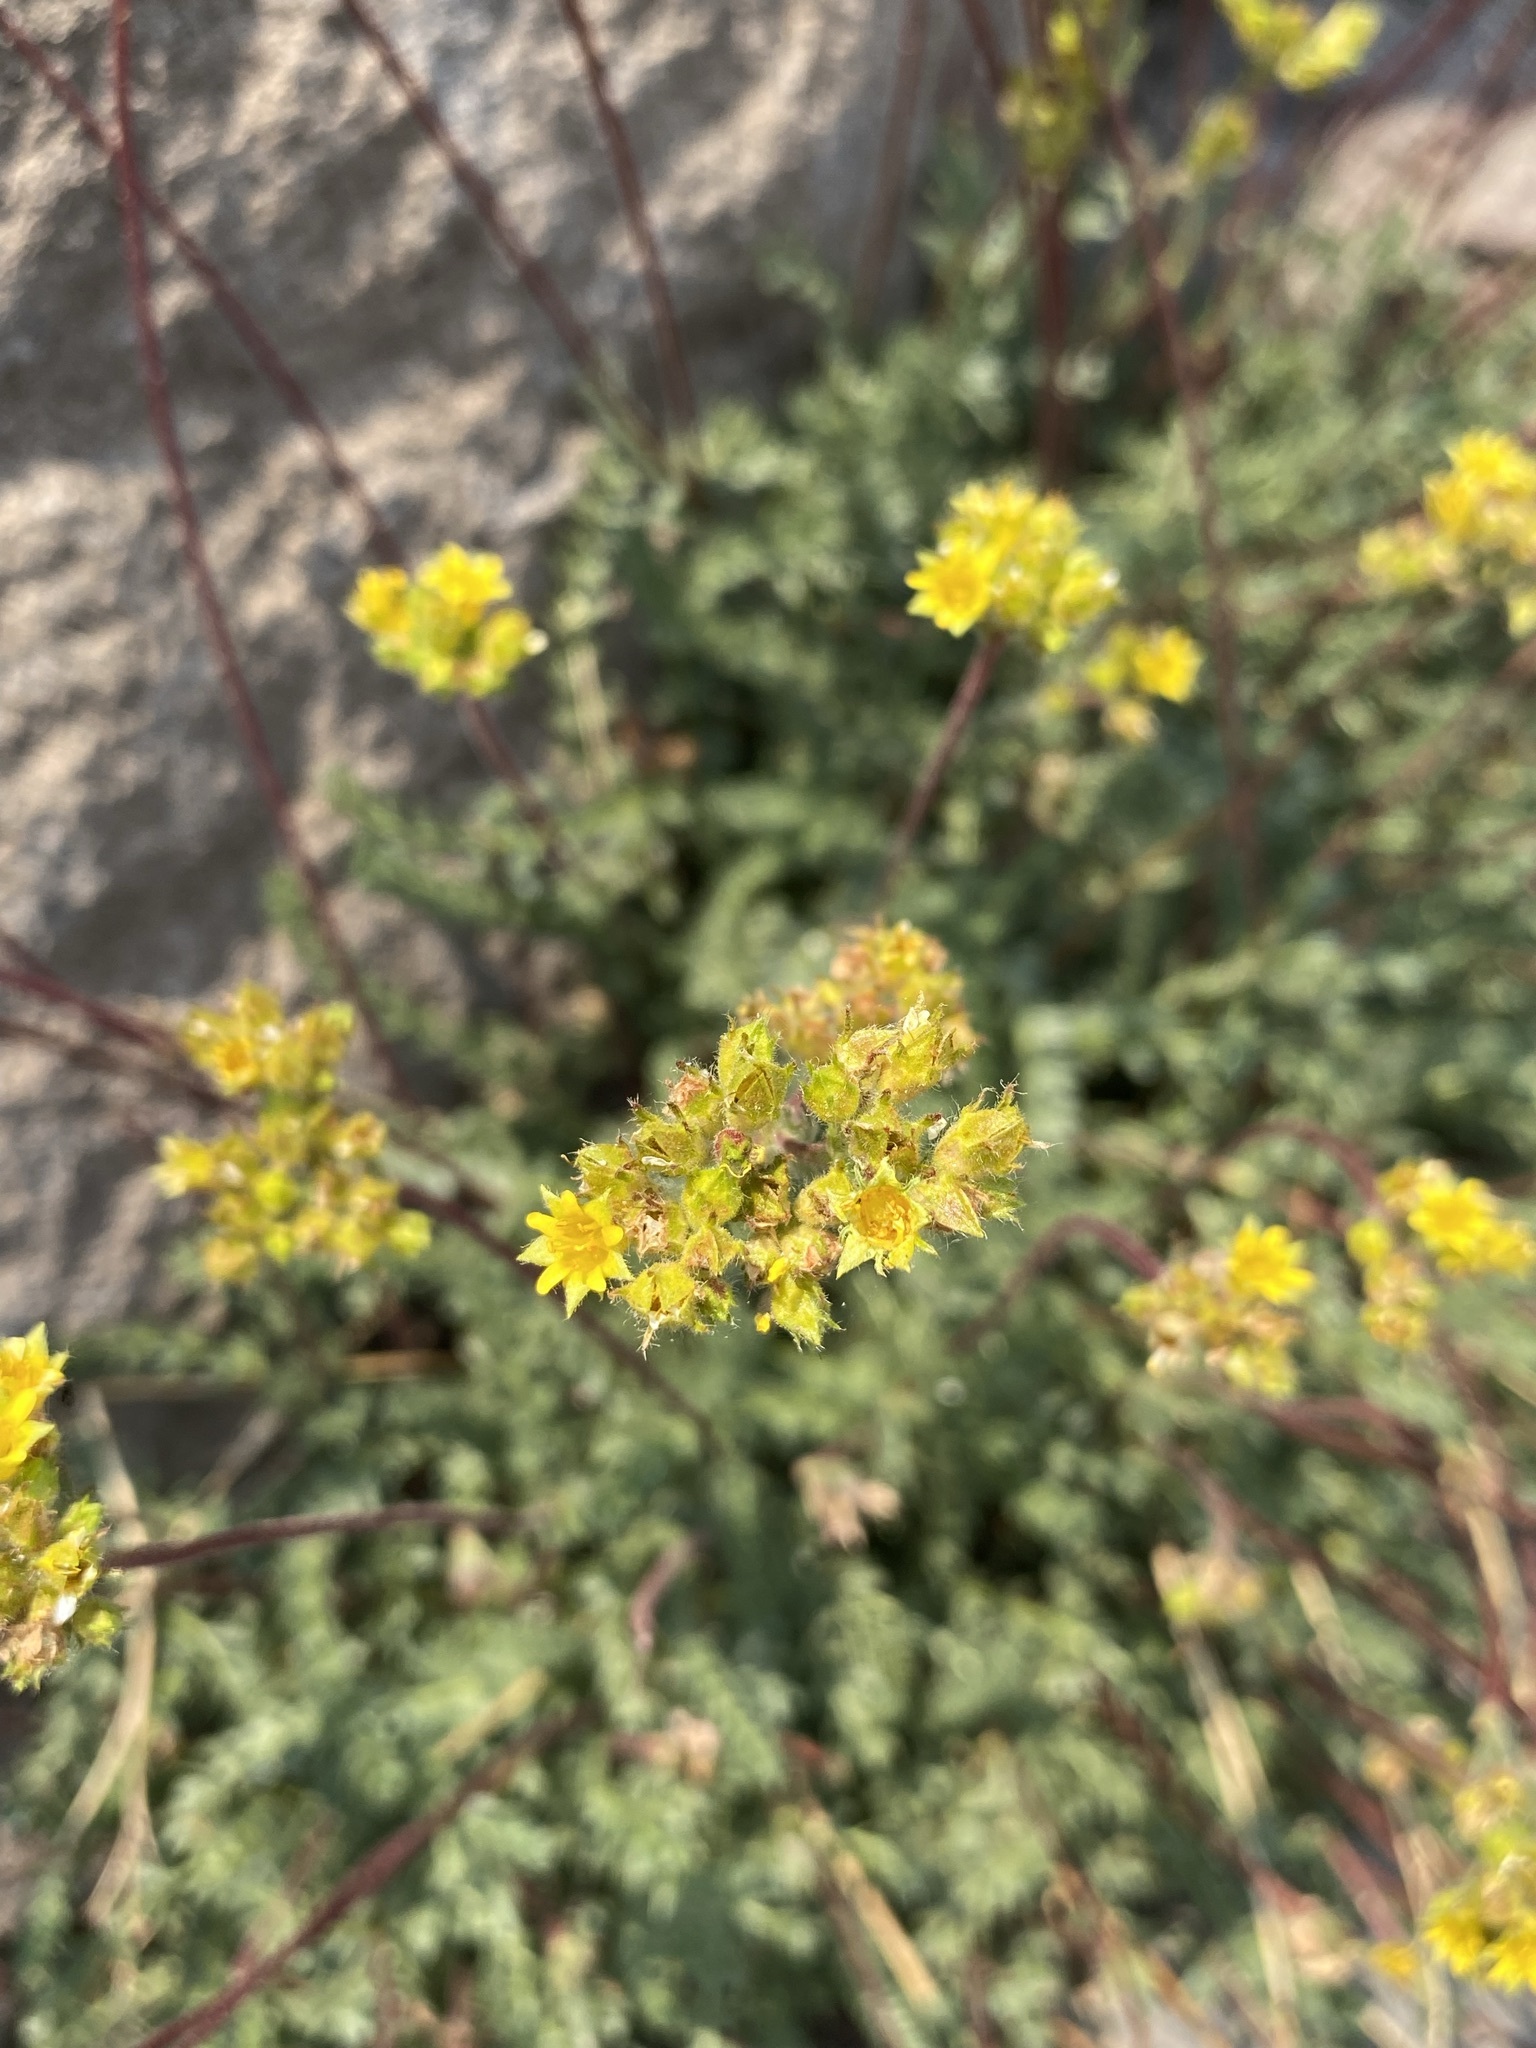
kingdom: Plantae
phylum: Tracheophyta
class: Magnoliopsida
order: Rosales
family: Rosaceae
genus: Potentilla
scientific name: Potentilla gordonii
